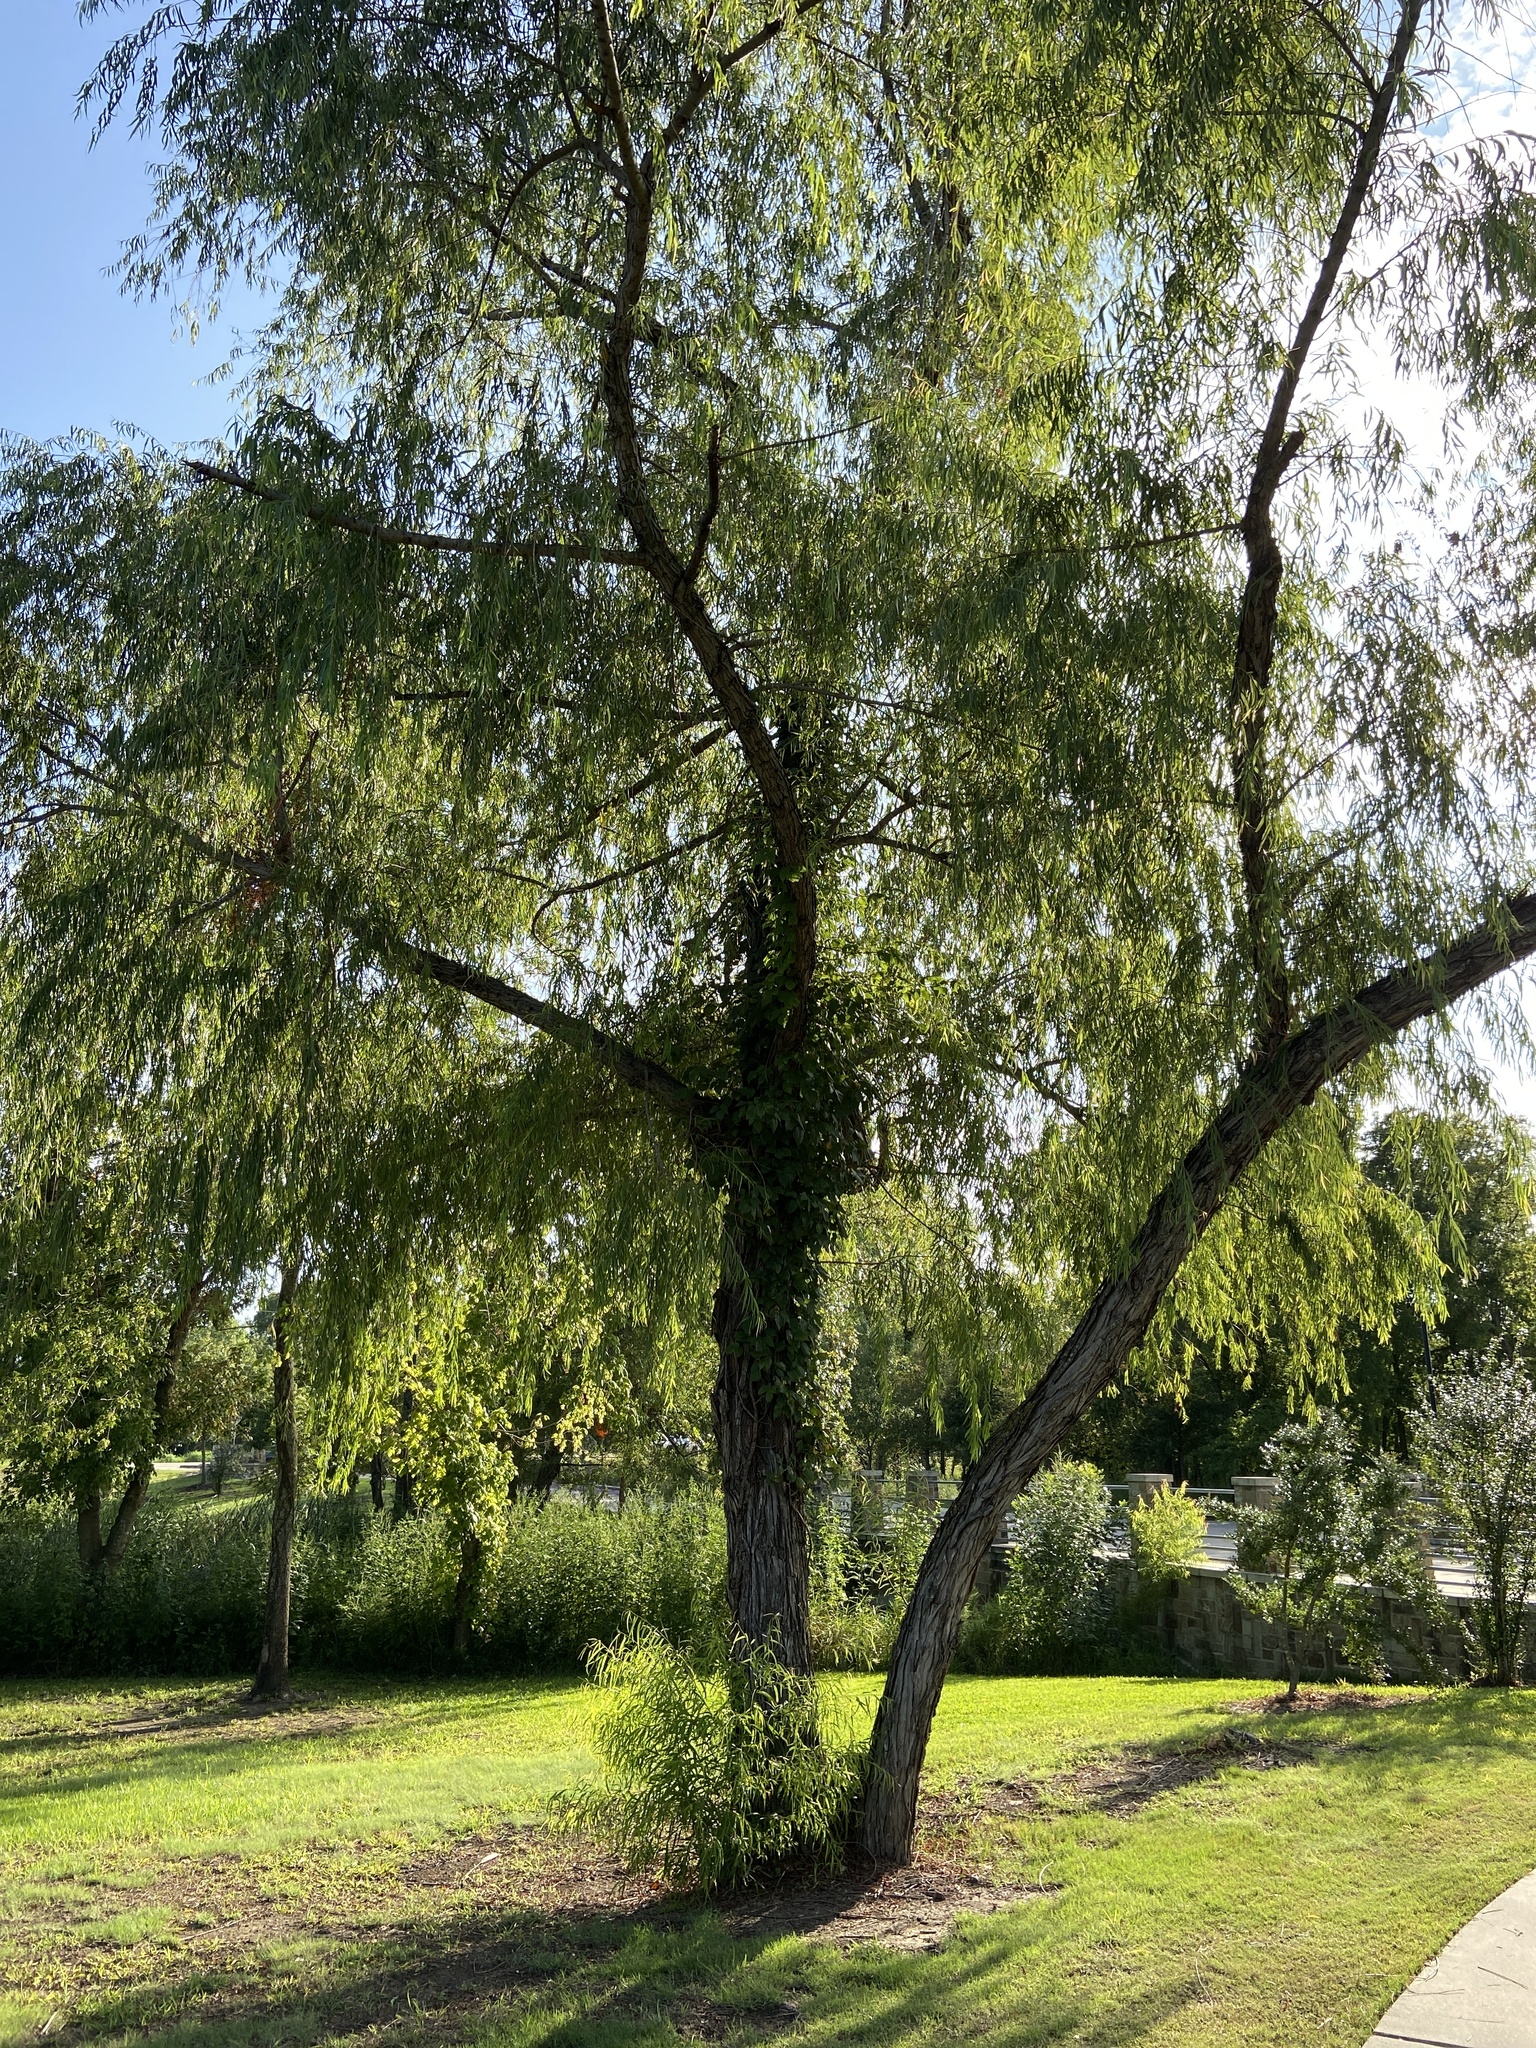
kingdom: Plantae
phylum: Tracheophyta
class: Magnoliopsida
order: Malpighiales
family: Salicaceae
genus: Salix
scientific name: Salix nigra
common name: Black willow
